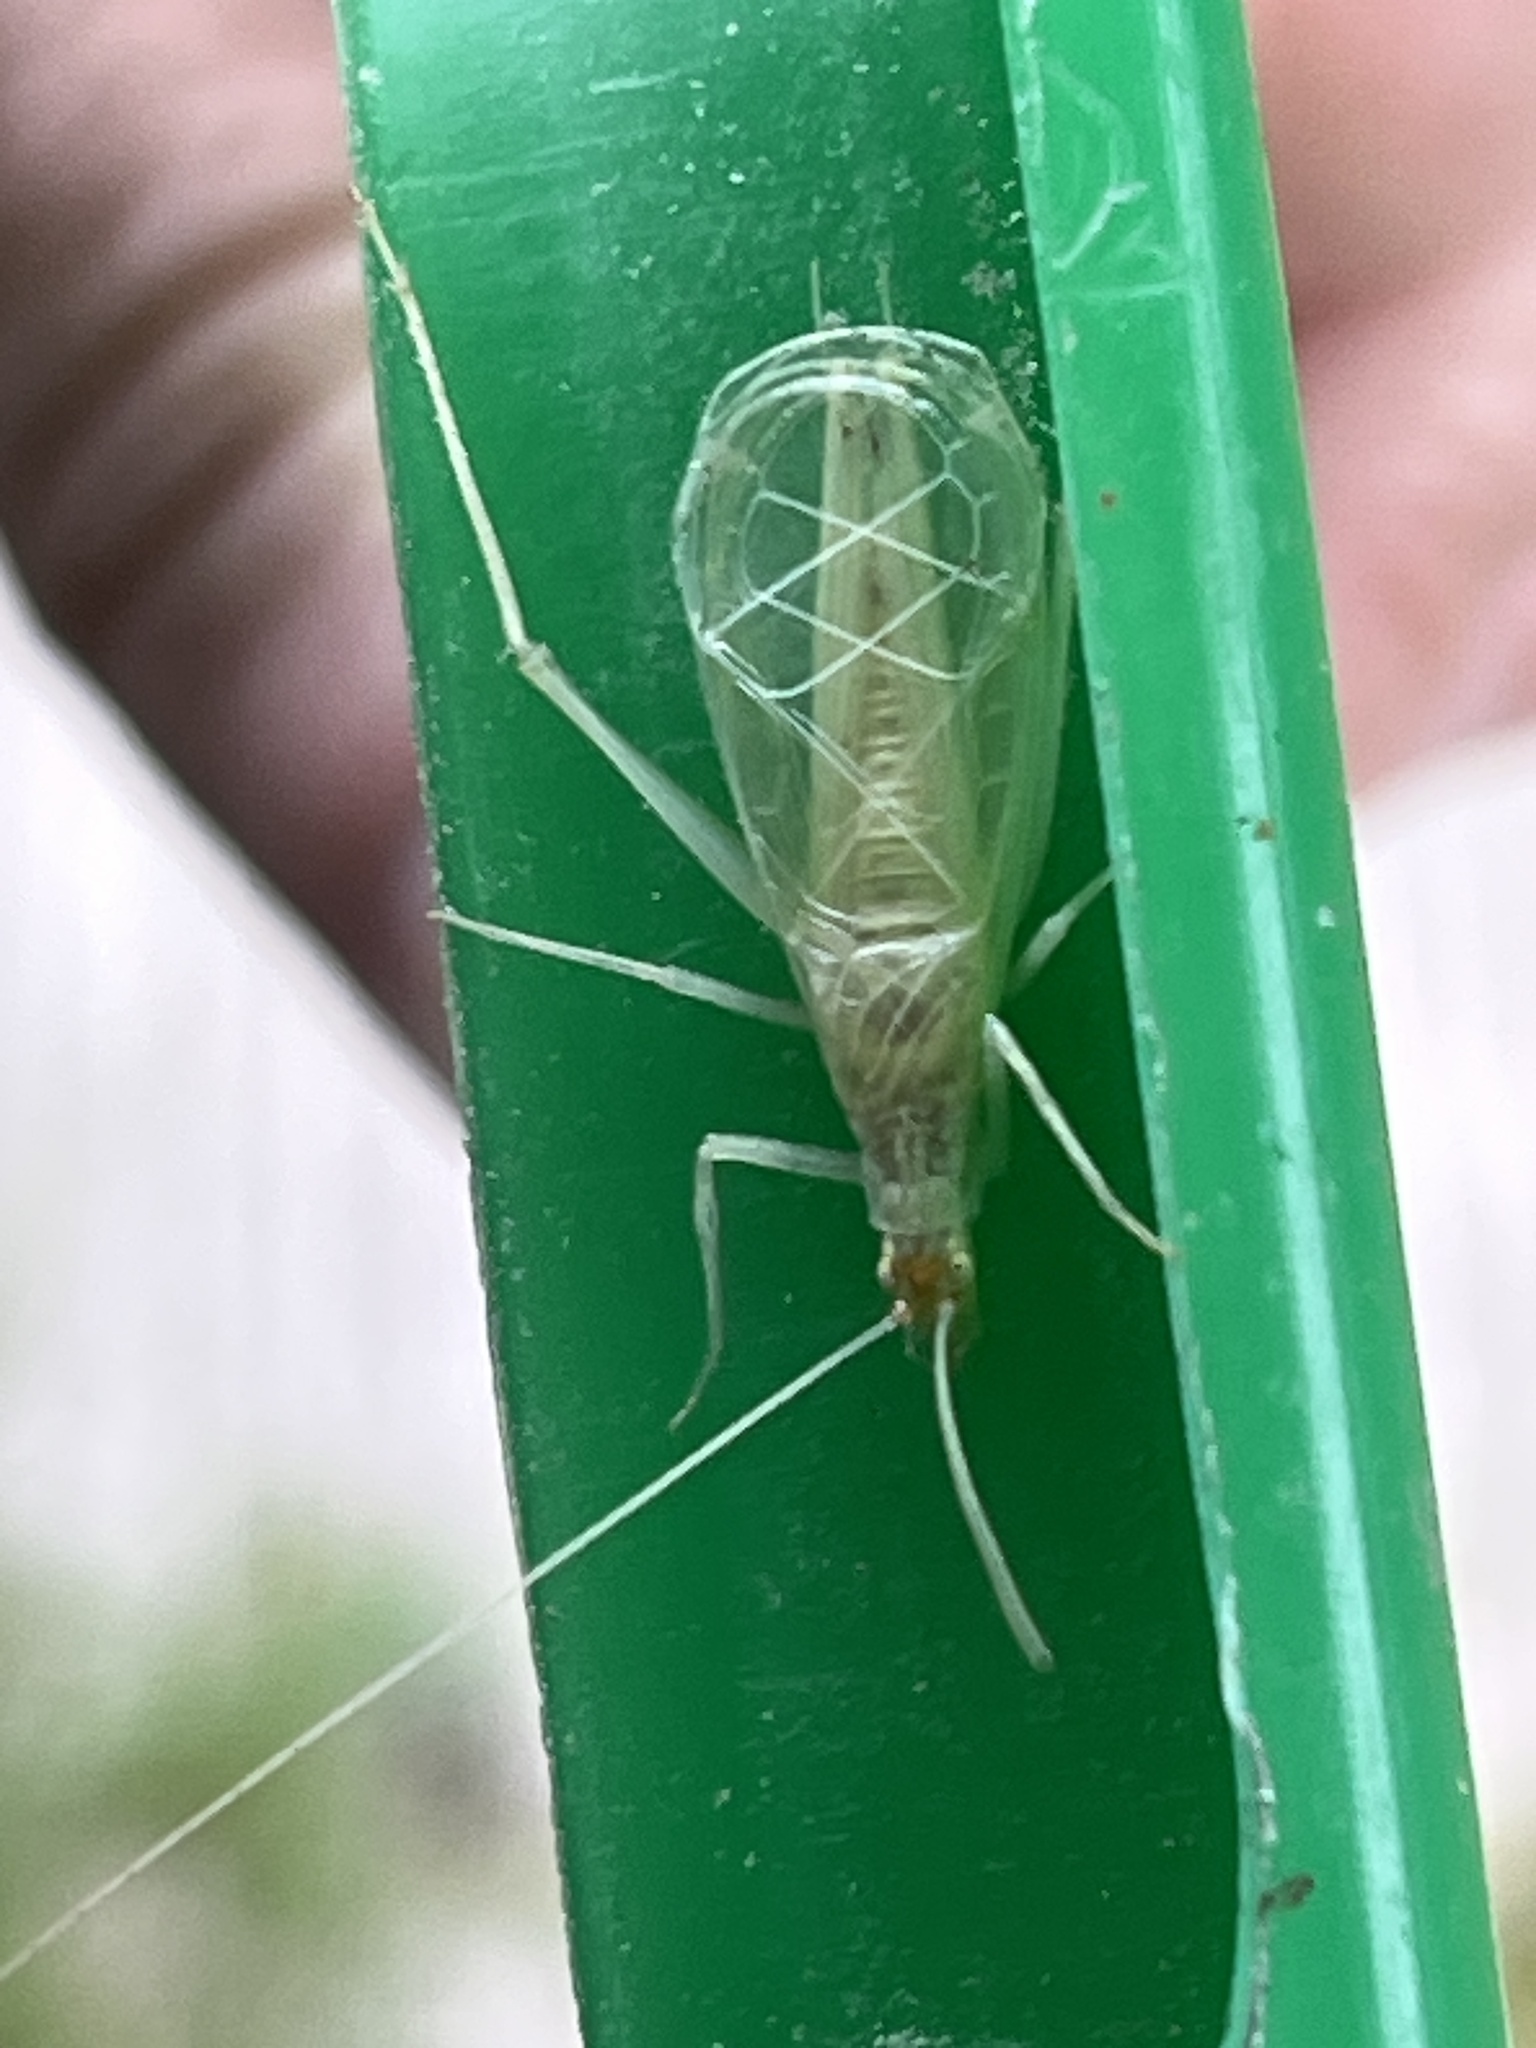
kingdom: Animalia
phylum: Arthropoda
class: Insecta
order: Orthoptera
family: Gryllidae
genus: Oecanthus
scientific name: Oecanthus fultoni
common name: Snowy tree cricket
